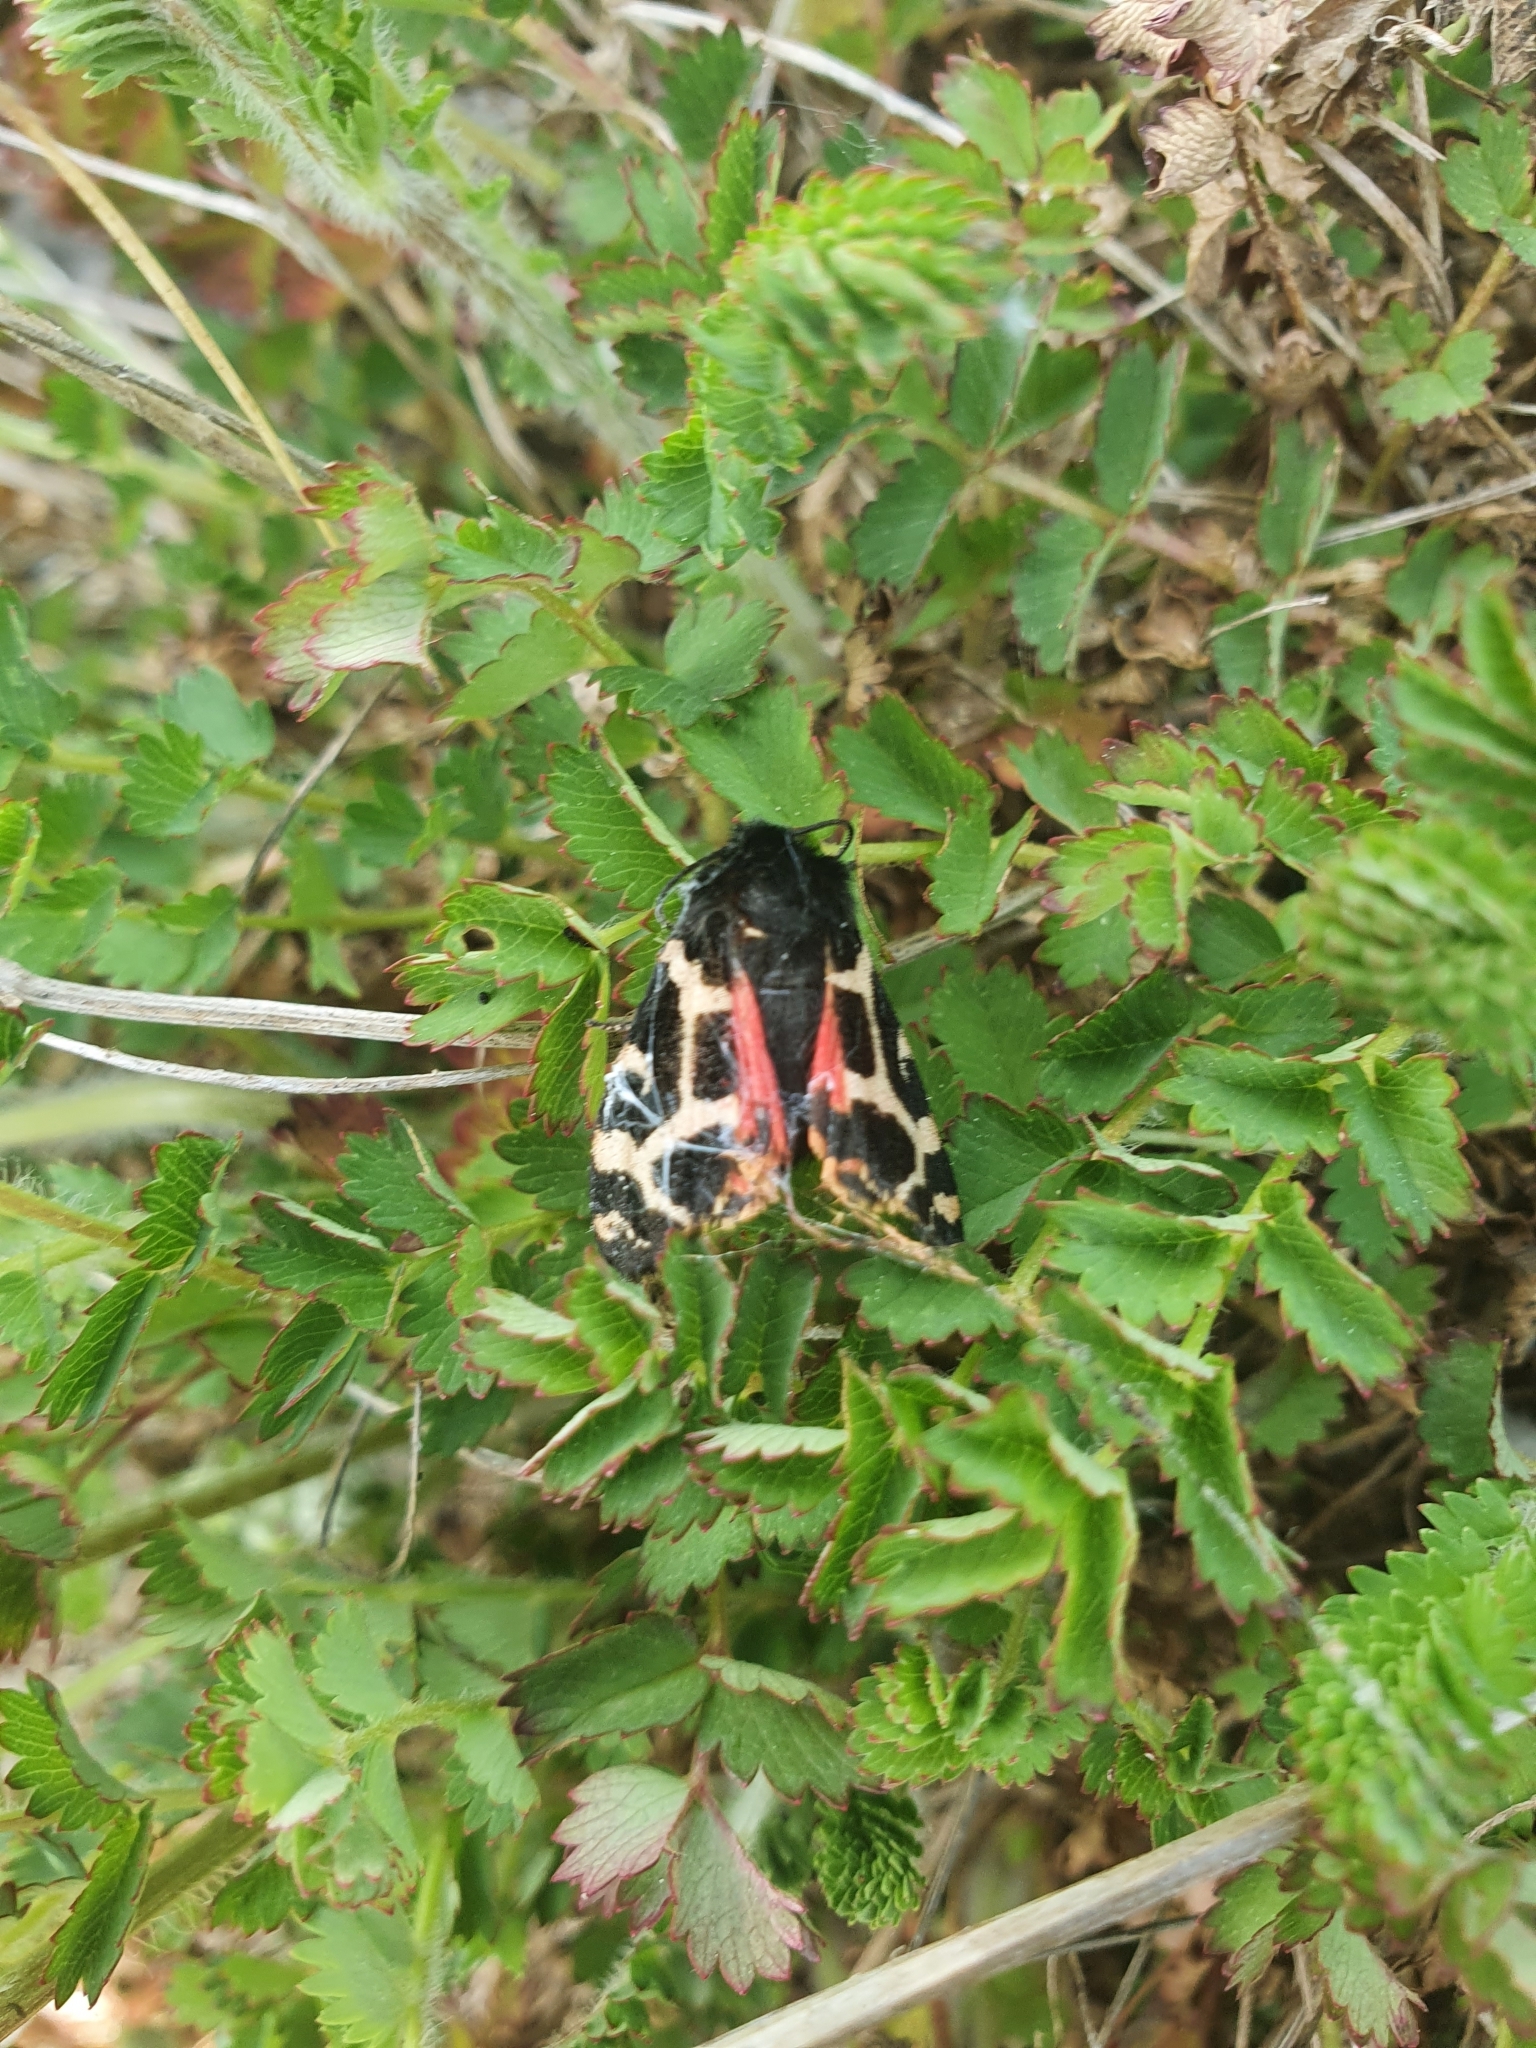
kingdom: Animalia
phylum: Arthropoda
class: Insecta
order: Lepidoptera
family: Erebidae
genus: Artimelia
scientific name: Artimelia latreillii
